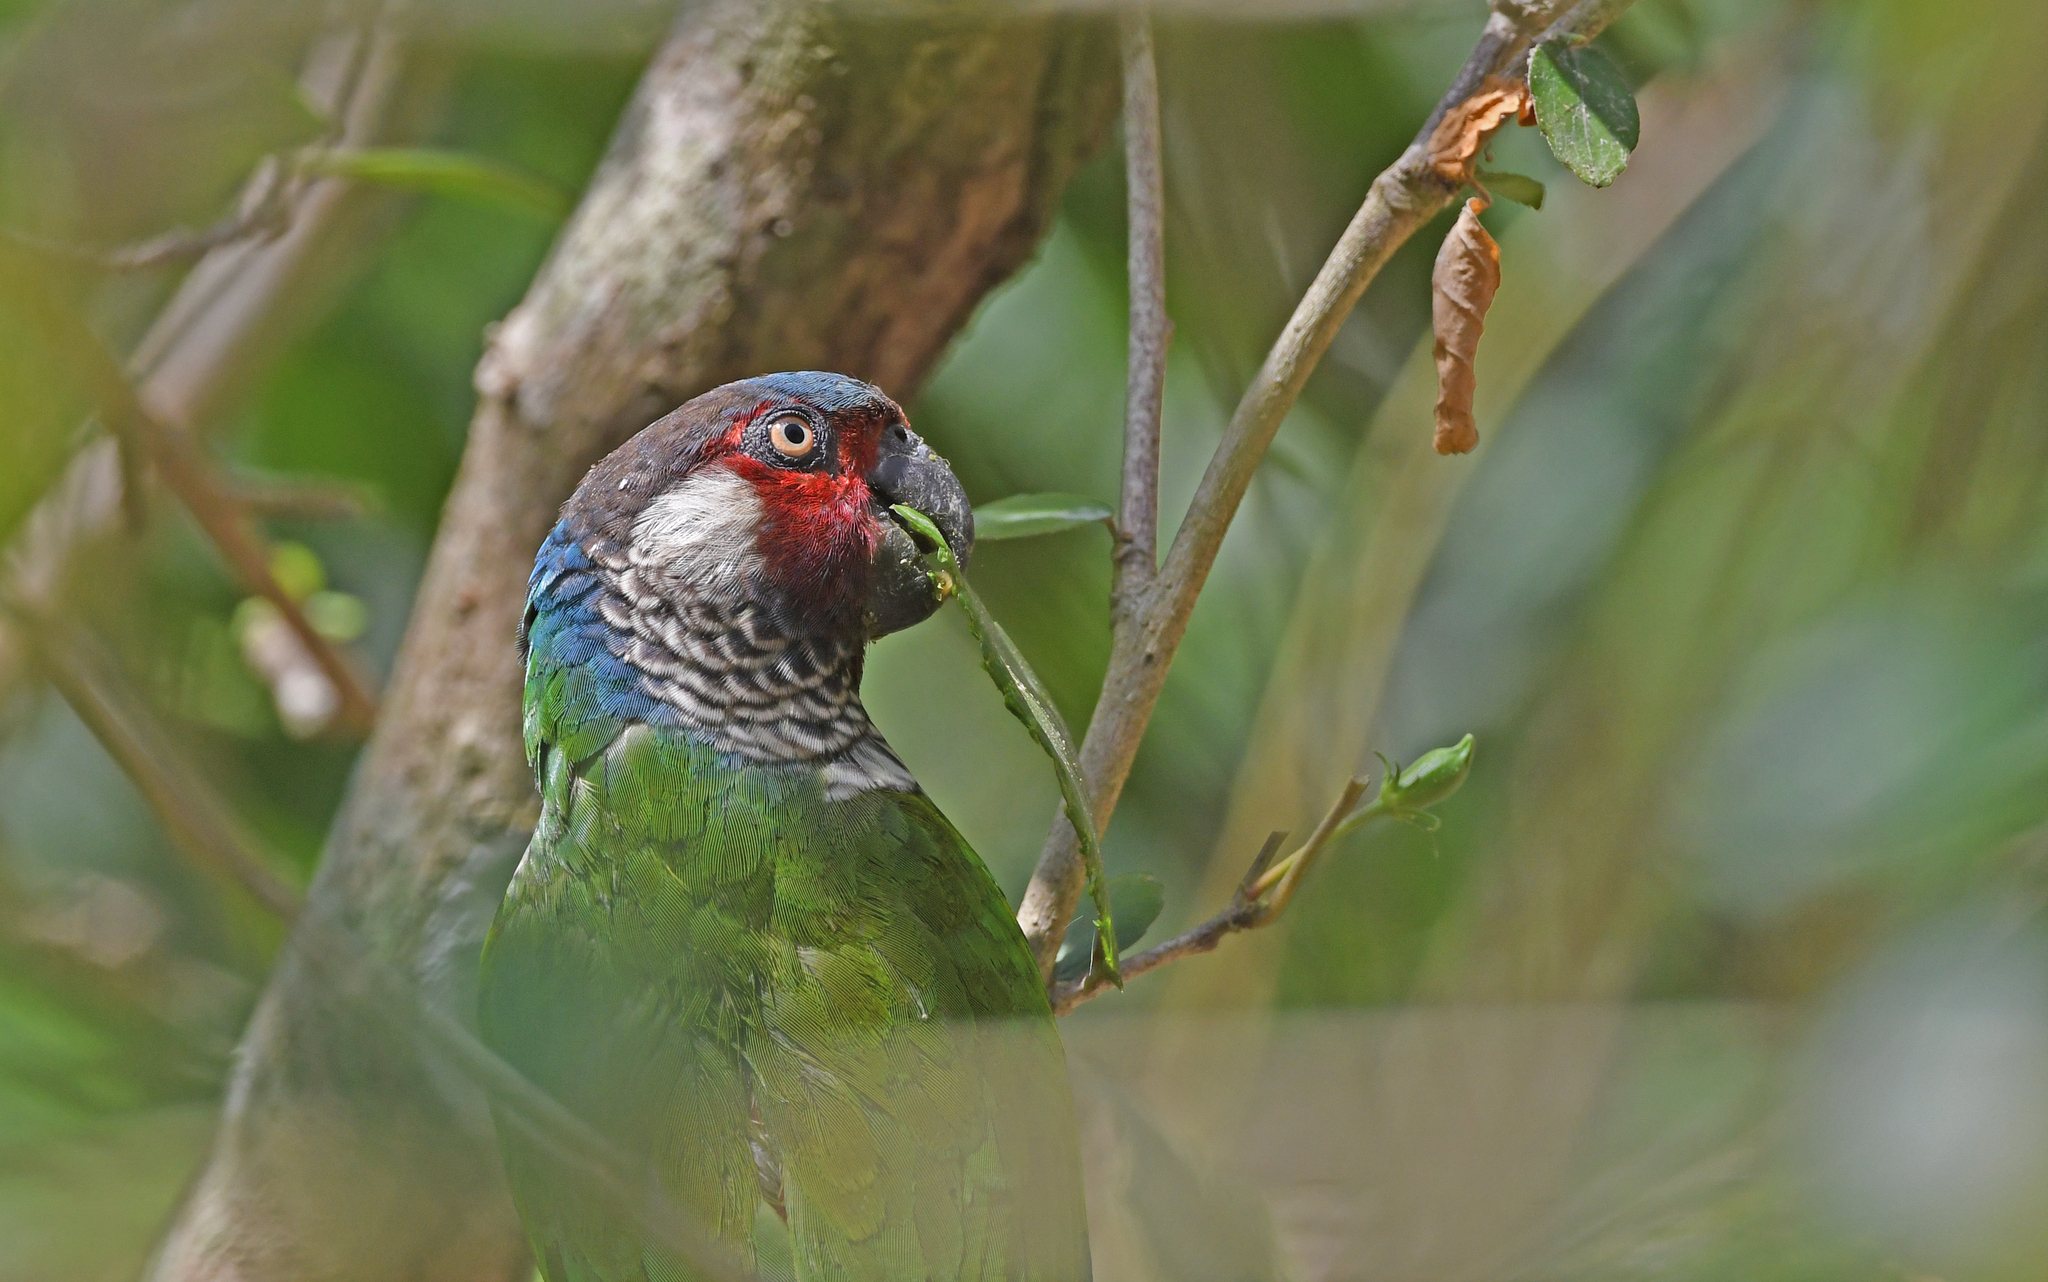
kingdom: Animalia
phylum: Chordata
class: Aves
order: Psittaciformes
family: Psittacidae
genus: Pyrrhura
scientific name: Pyrrhura picta
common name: Painted parakeet
